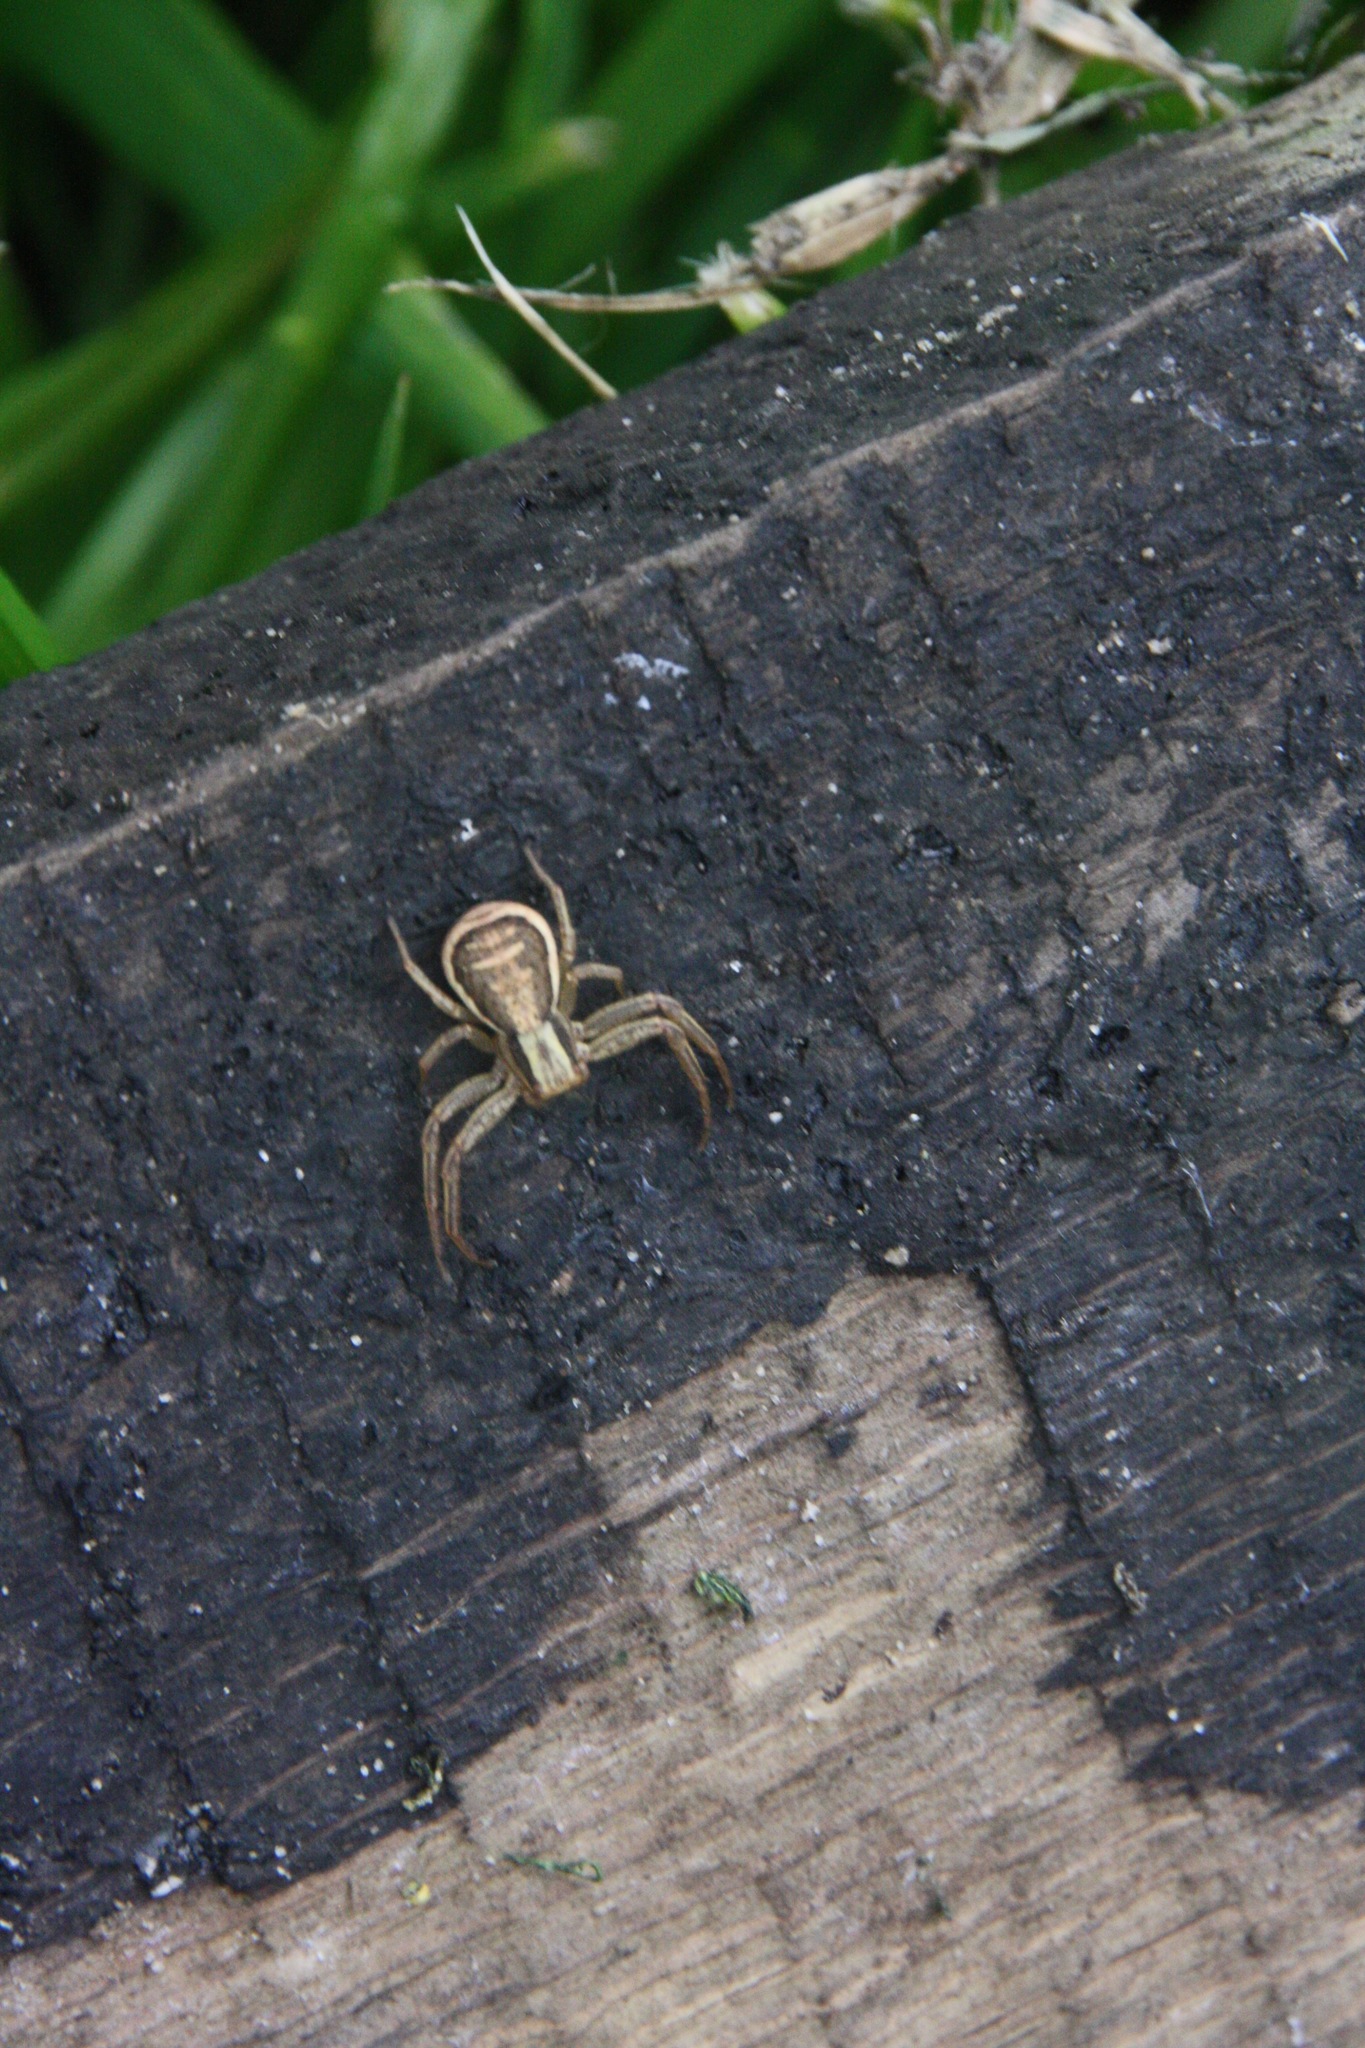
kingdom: Animalia
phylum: Arthropoda
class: Arachnida
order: Araneae
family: Thomisidae
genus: Xysticus
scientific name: Xysticus ulmi
